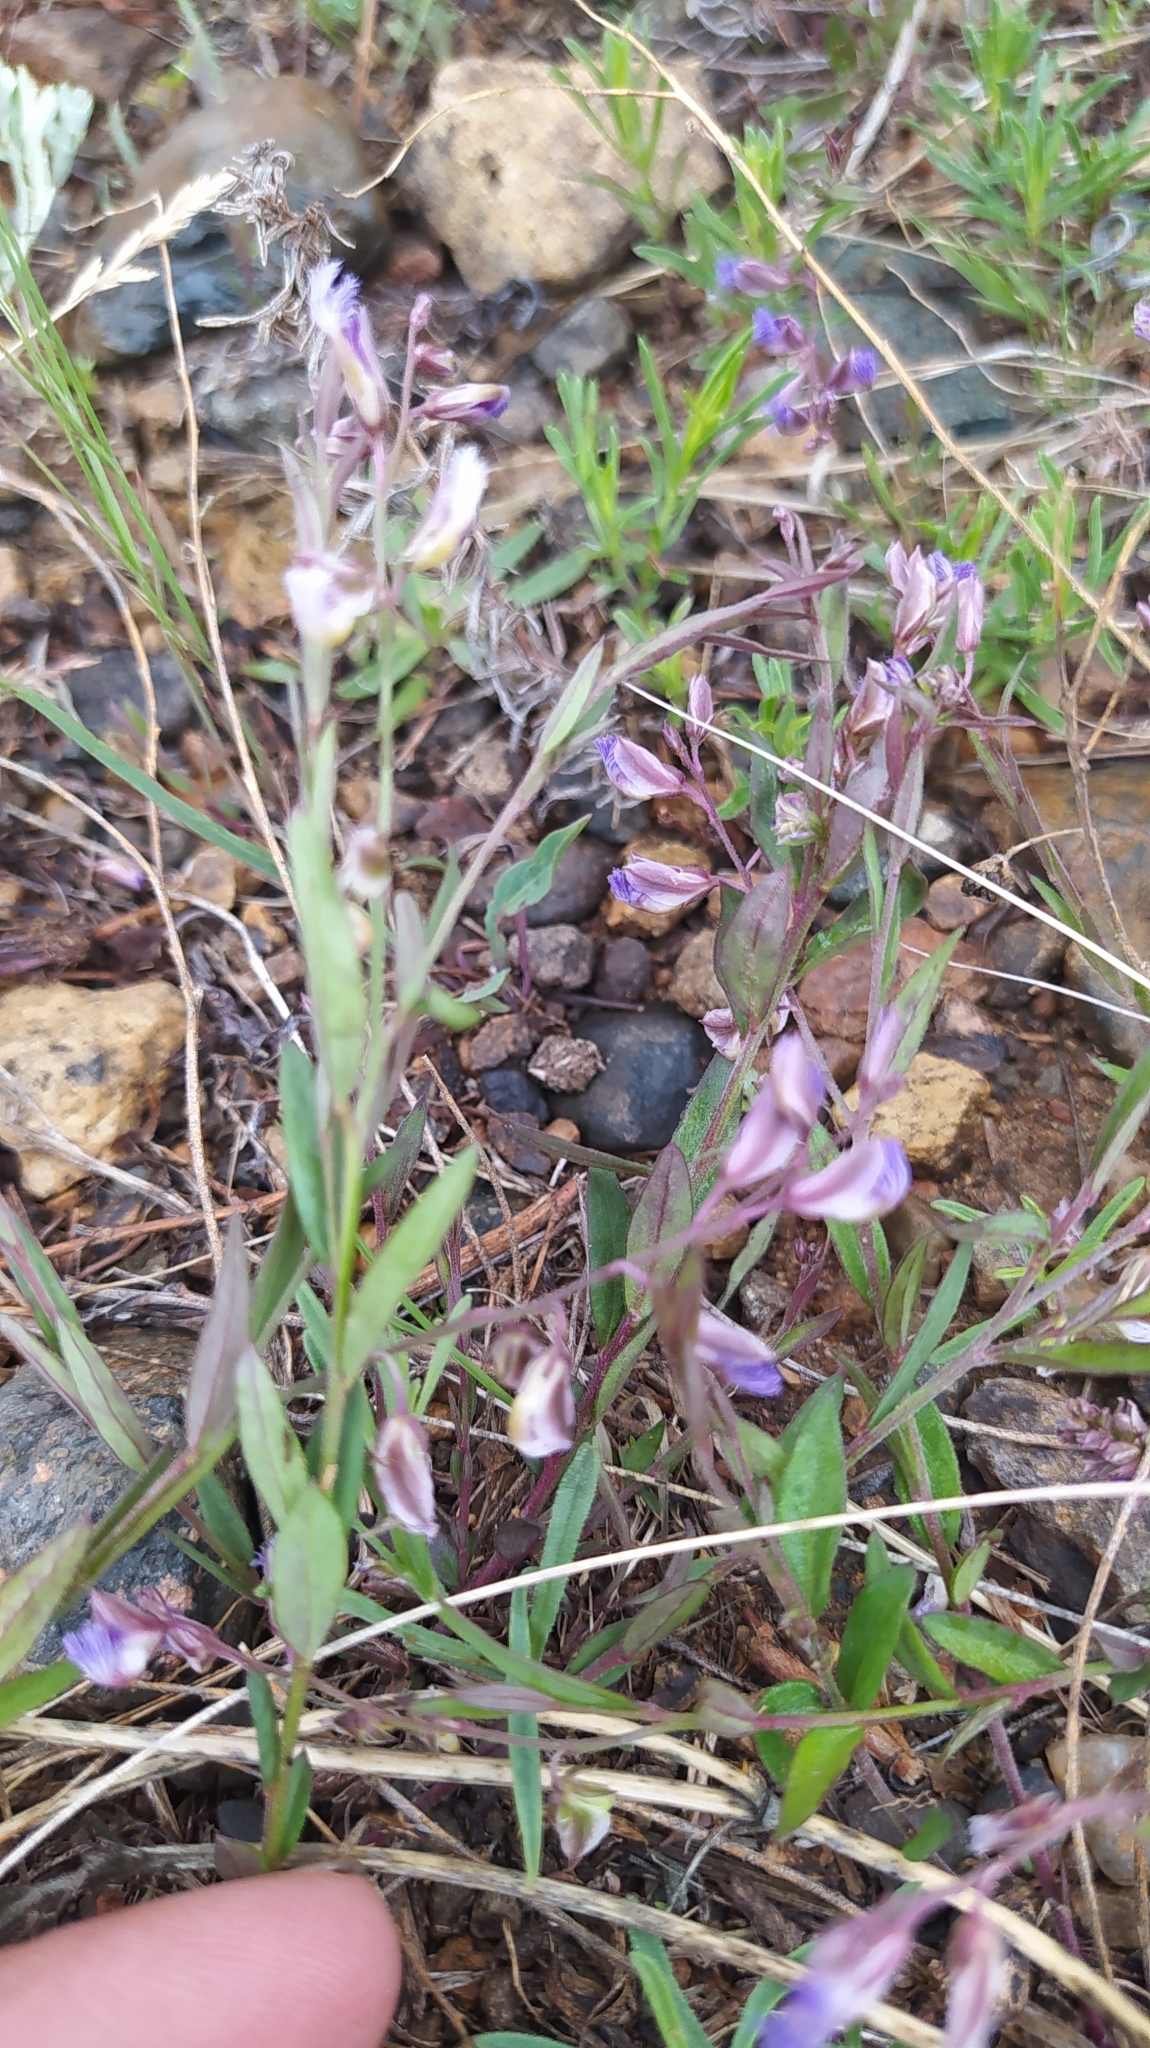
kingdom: Plantae
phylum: Tracheophyta
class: Magnoliopsida
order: Fabales
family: Polygalaceae
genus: Polygala
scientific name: Polygala sibirica
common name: Siberian polygala
